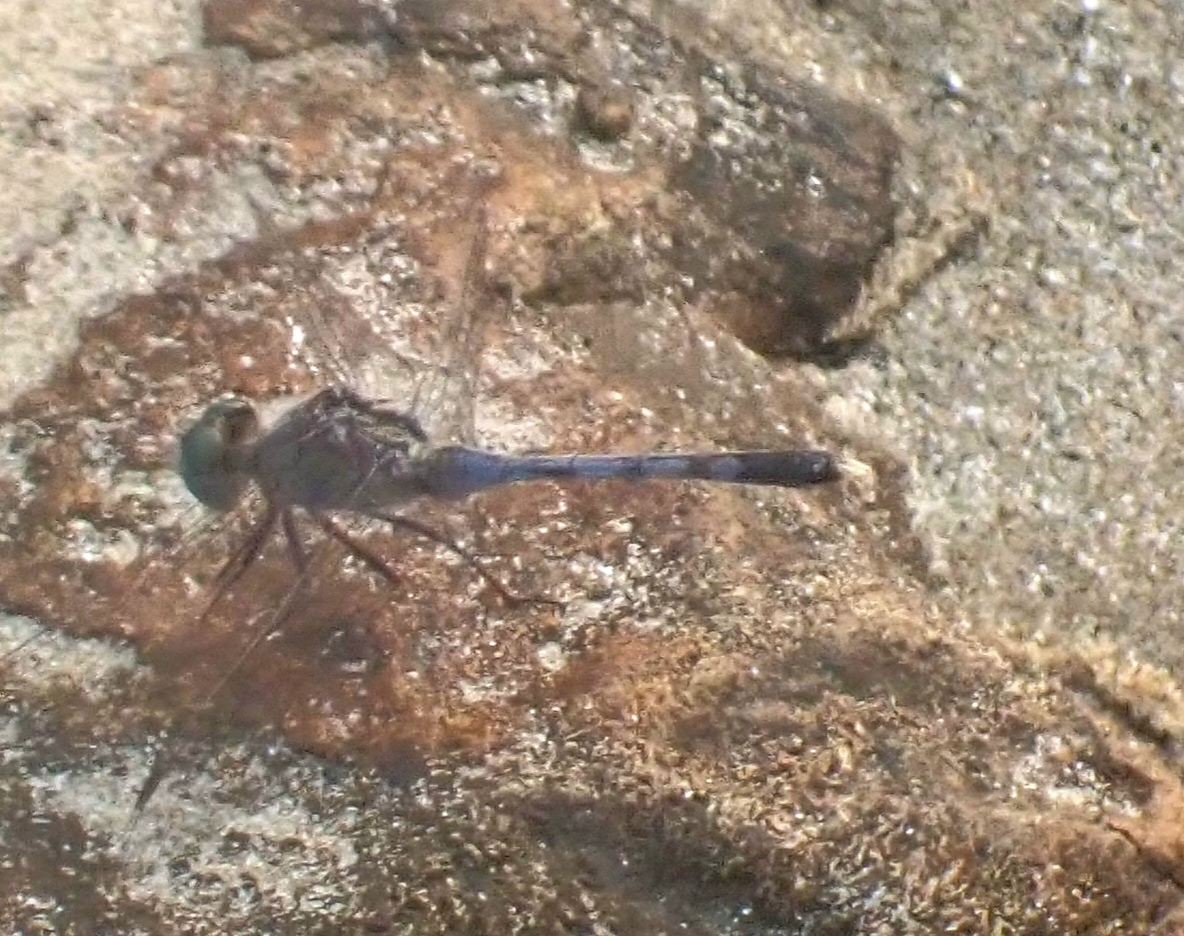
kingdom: Animalia
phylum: Arthropoda
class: Insecta
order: Odonata
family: Libellulidae
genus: Diplacodes
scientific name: Diplacodes trivialis
